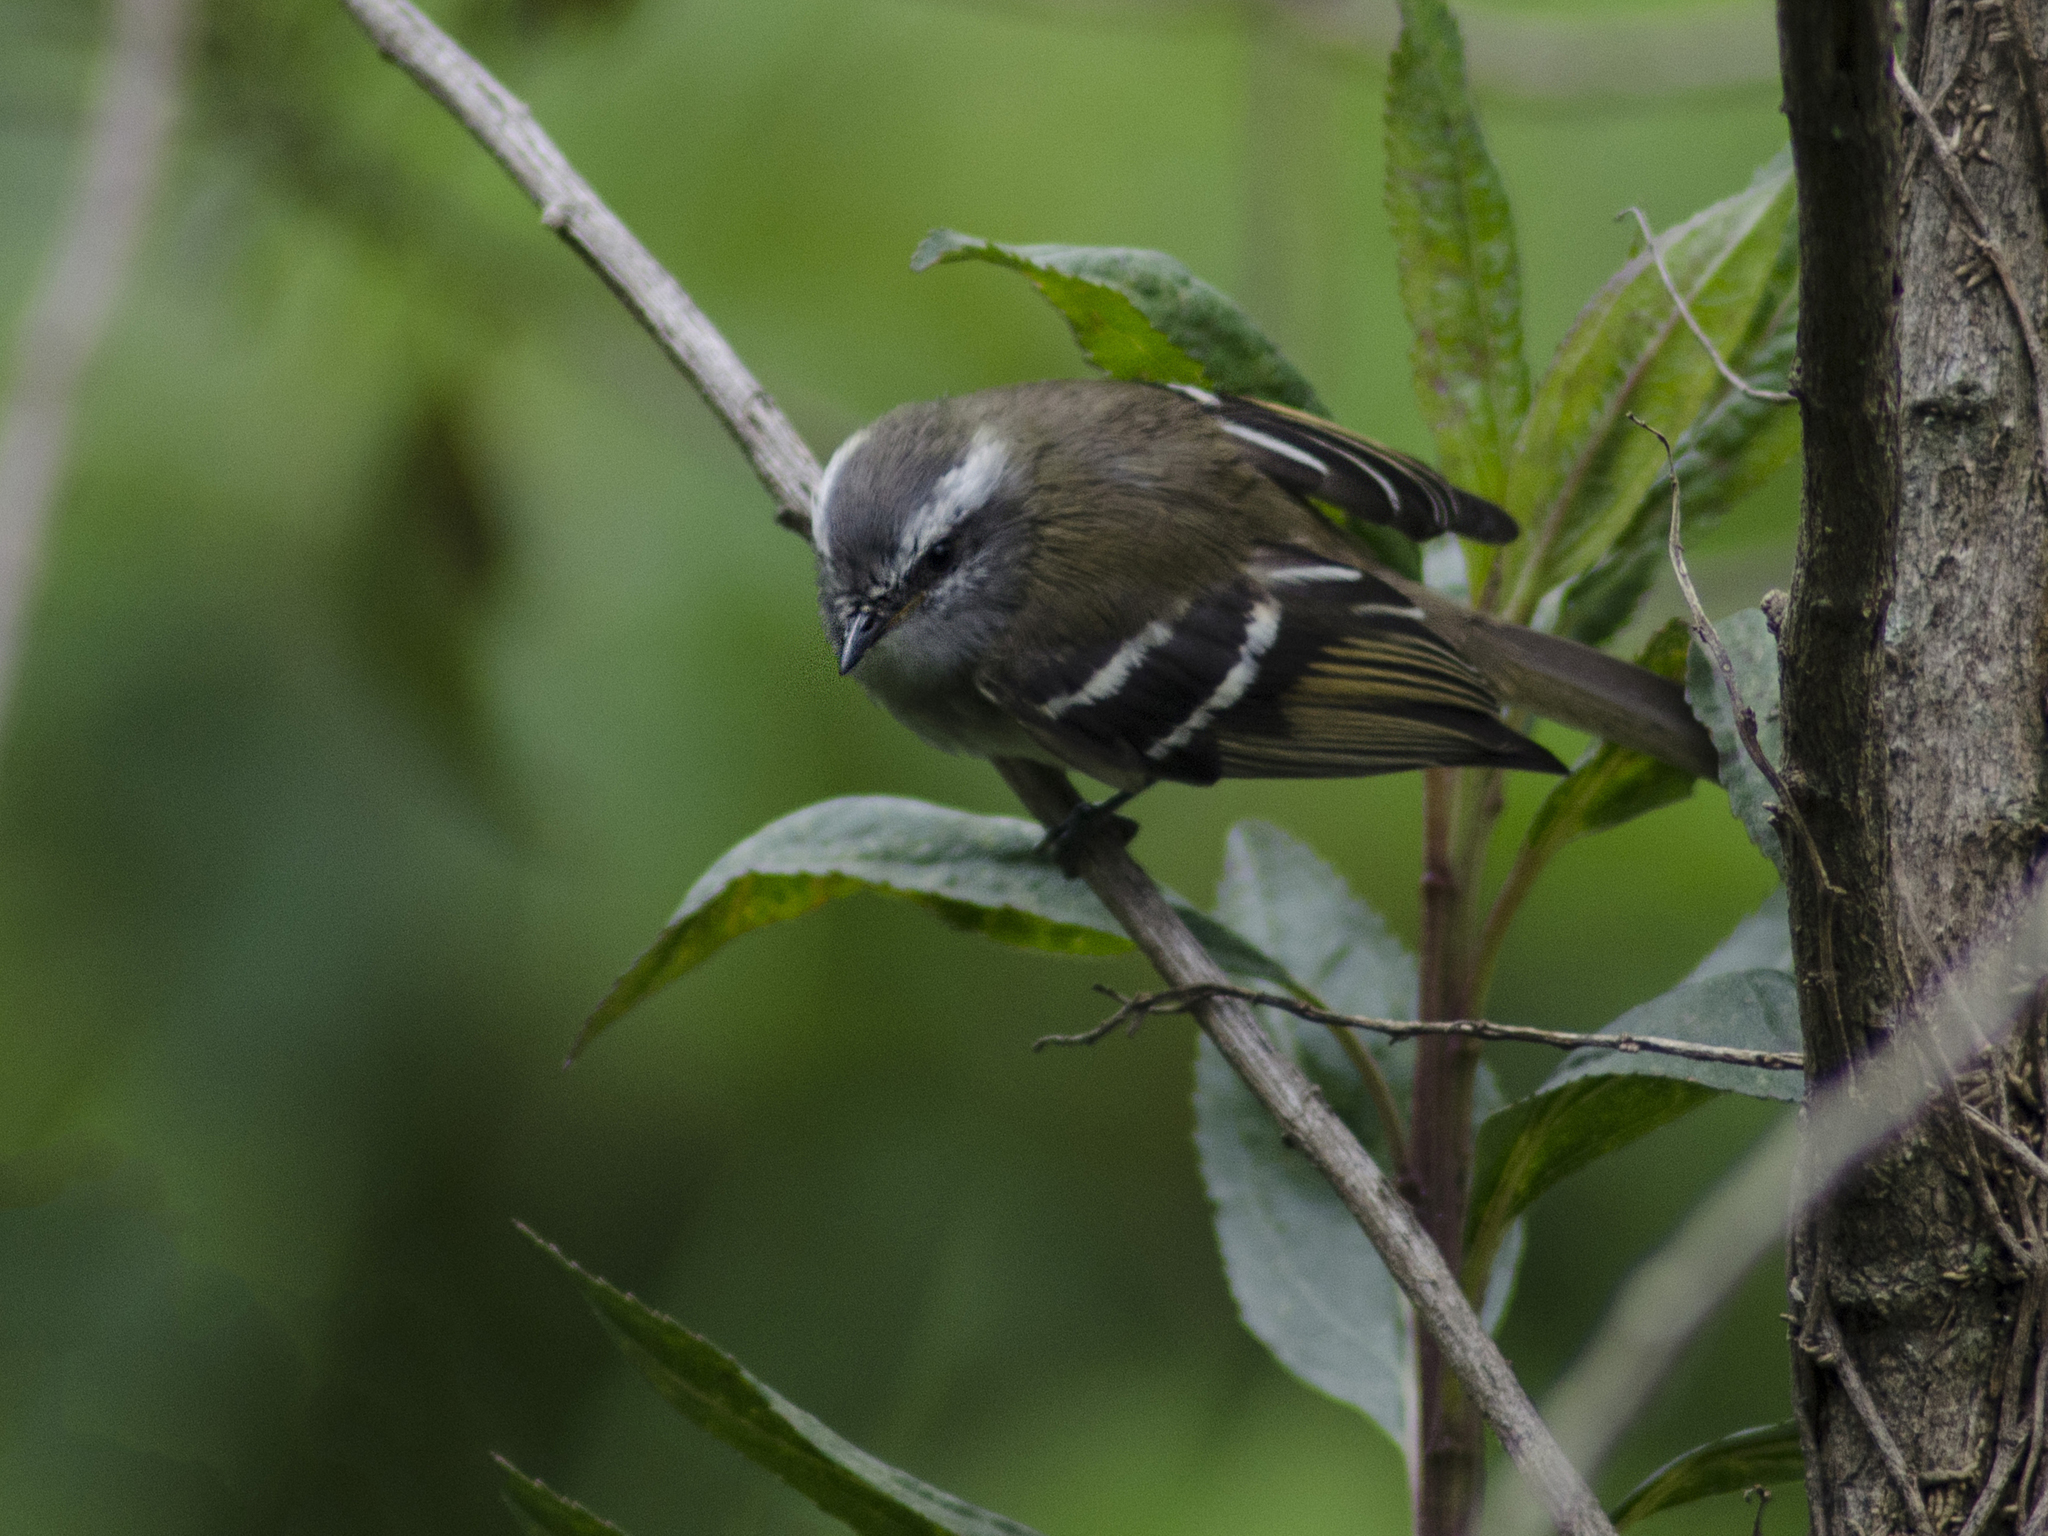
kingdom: Animalia
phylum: Chordata
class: Aves
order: Passeriformes
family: Tyrannidae
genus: Mecocerculus
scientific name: Mecocerculus stictopterus
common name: White-banded tyrannulet
